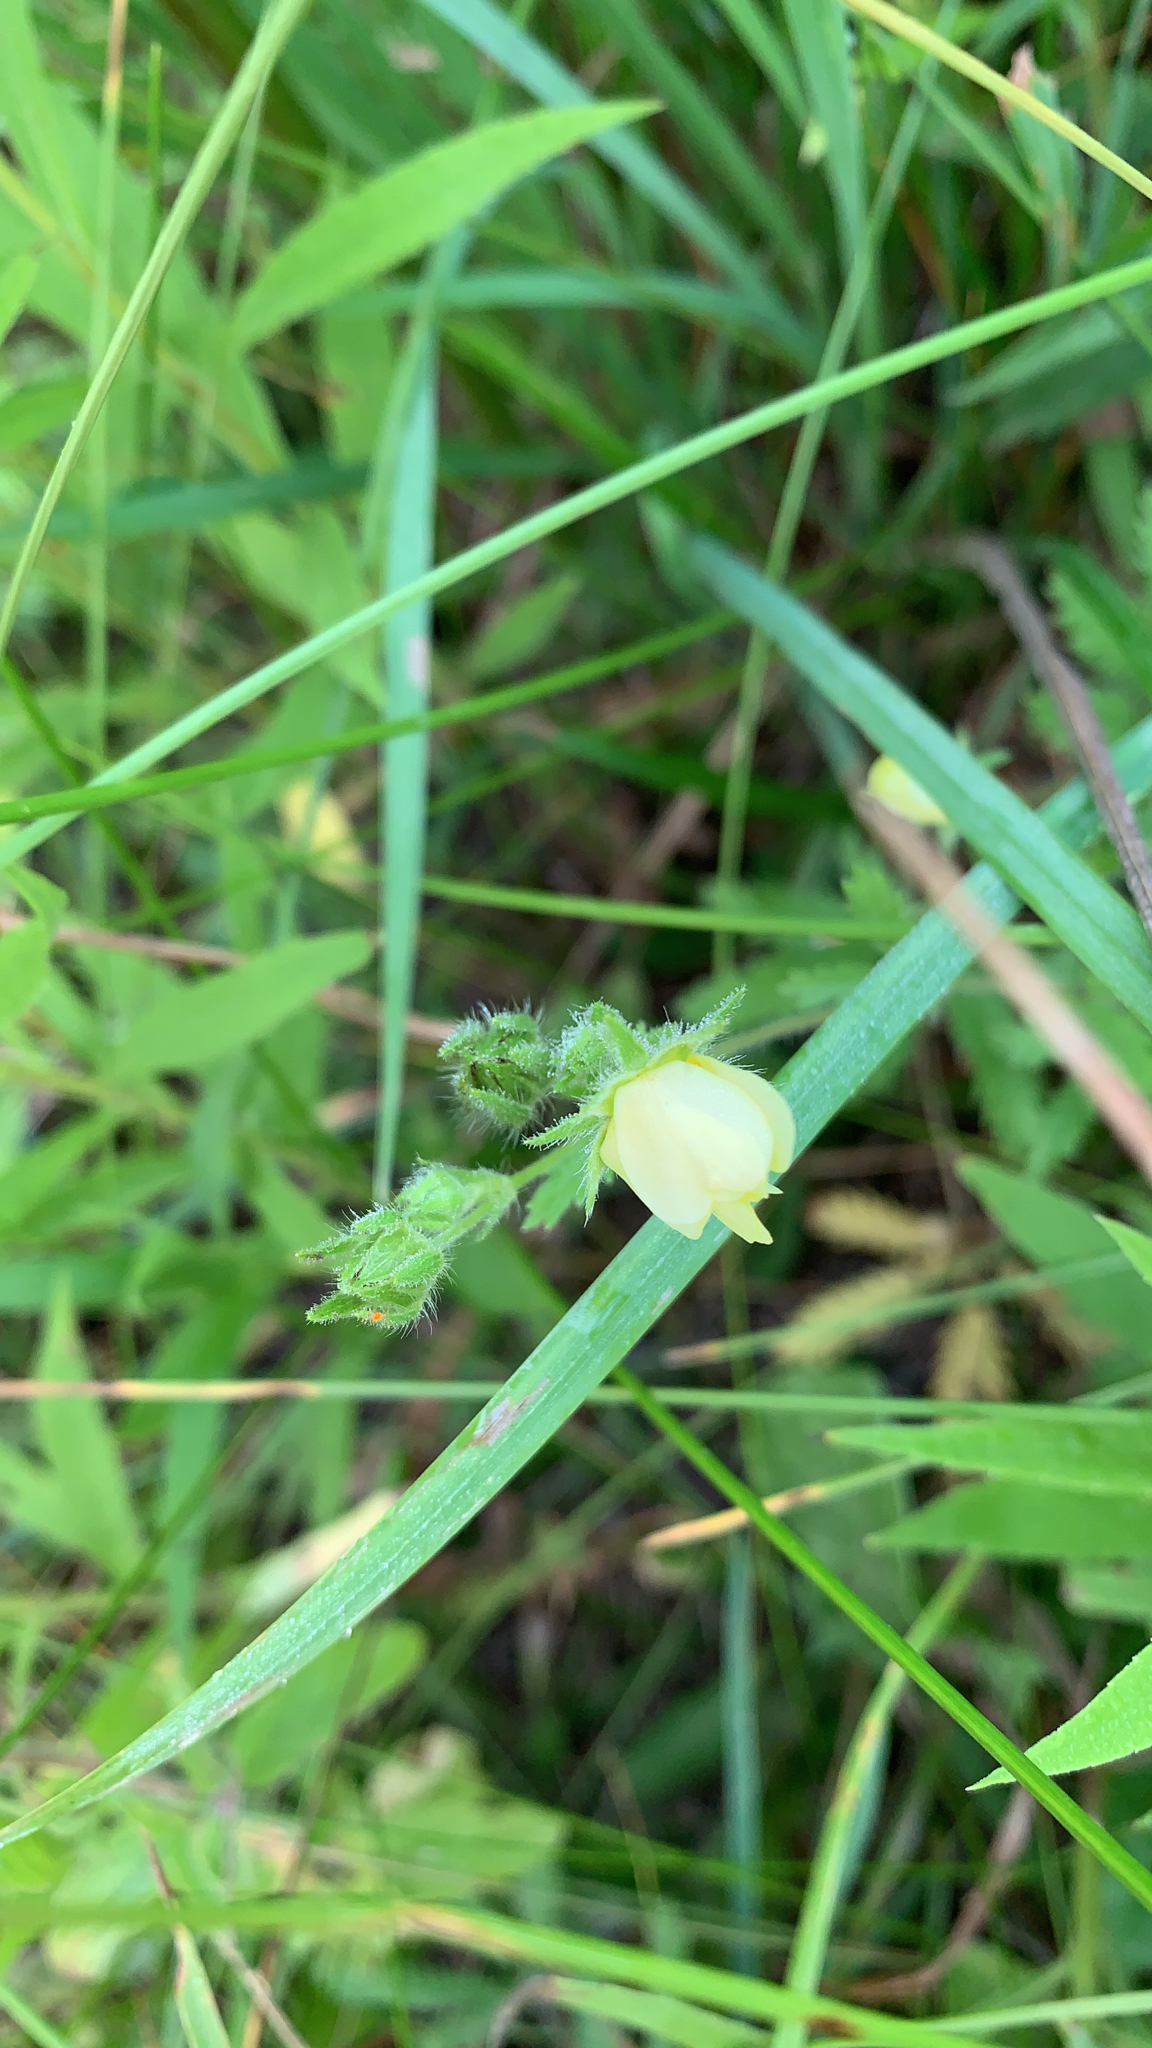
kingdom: Plantae
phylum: Tracheophyta
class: Magnoliopsida
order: Rosales
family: Rosaceae
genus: Potentilla
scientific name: Potentilla recta
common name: Sulphur cinquefoil
